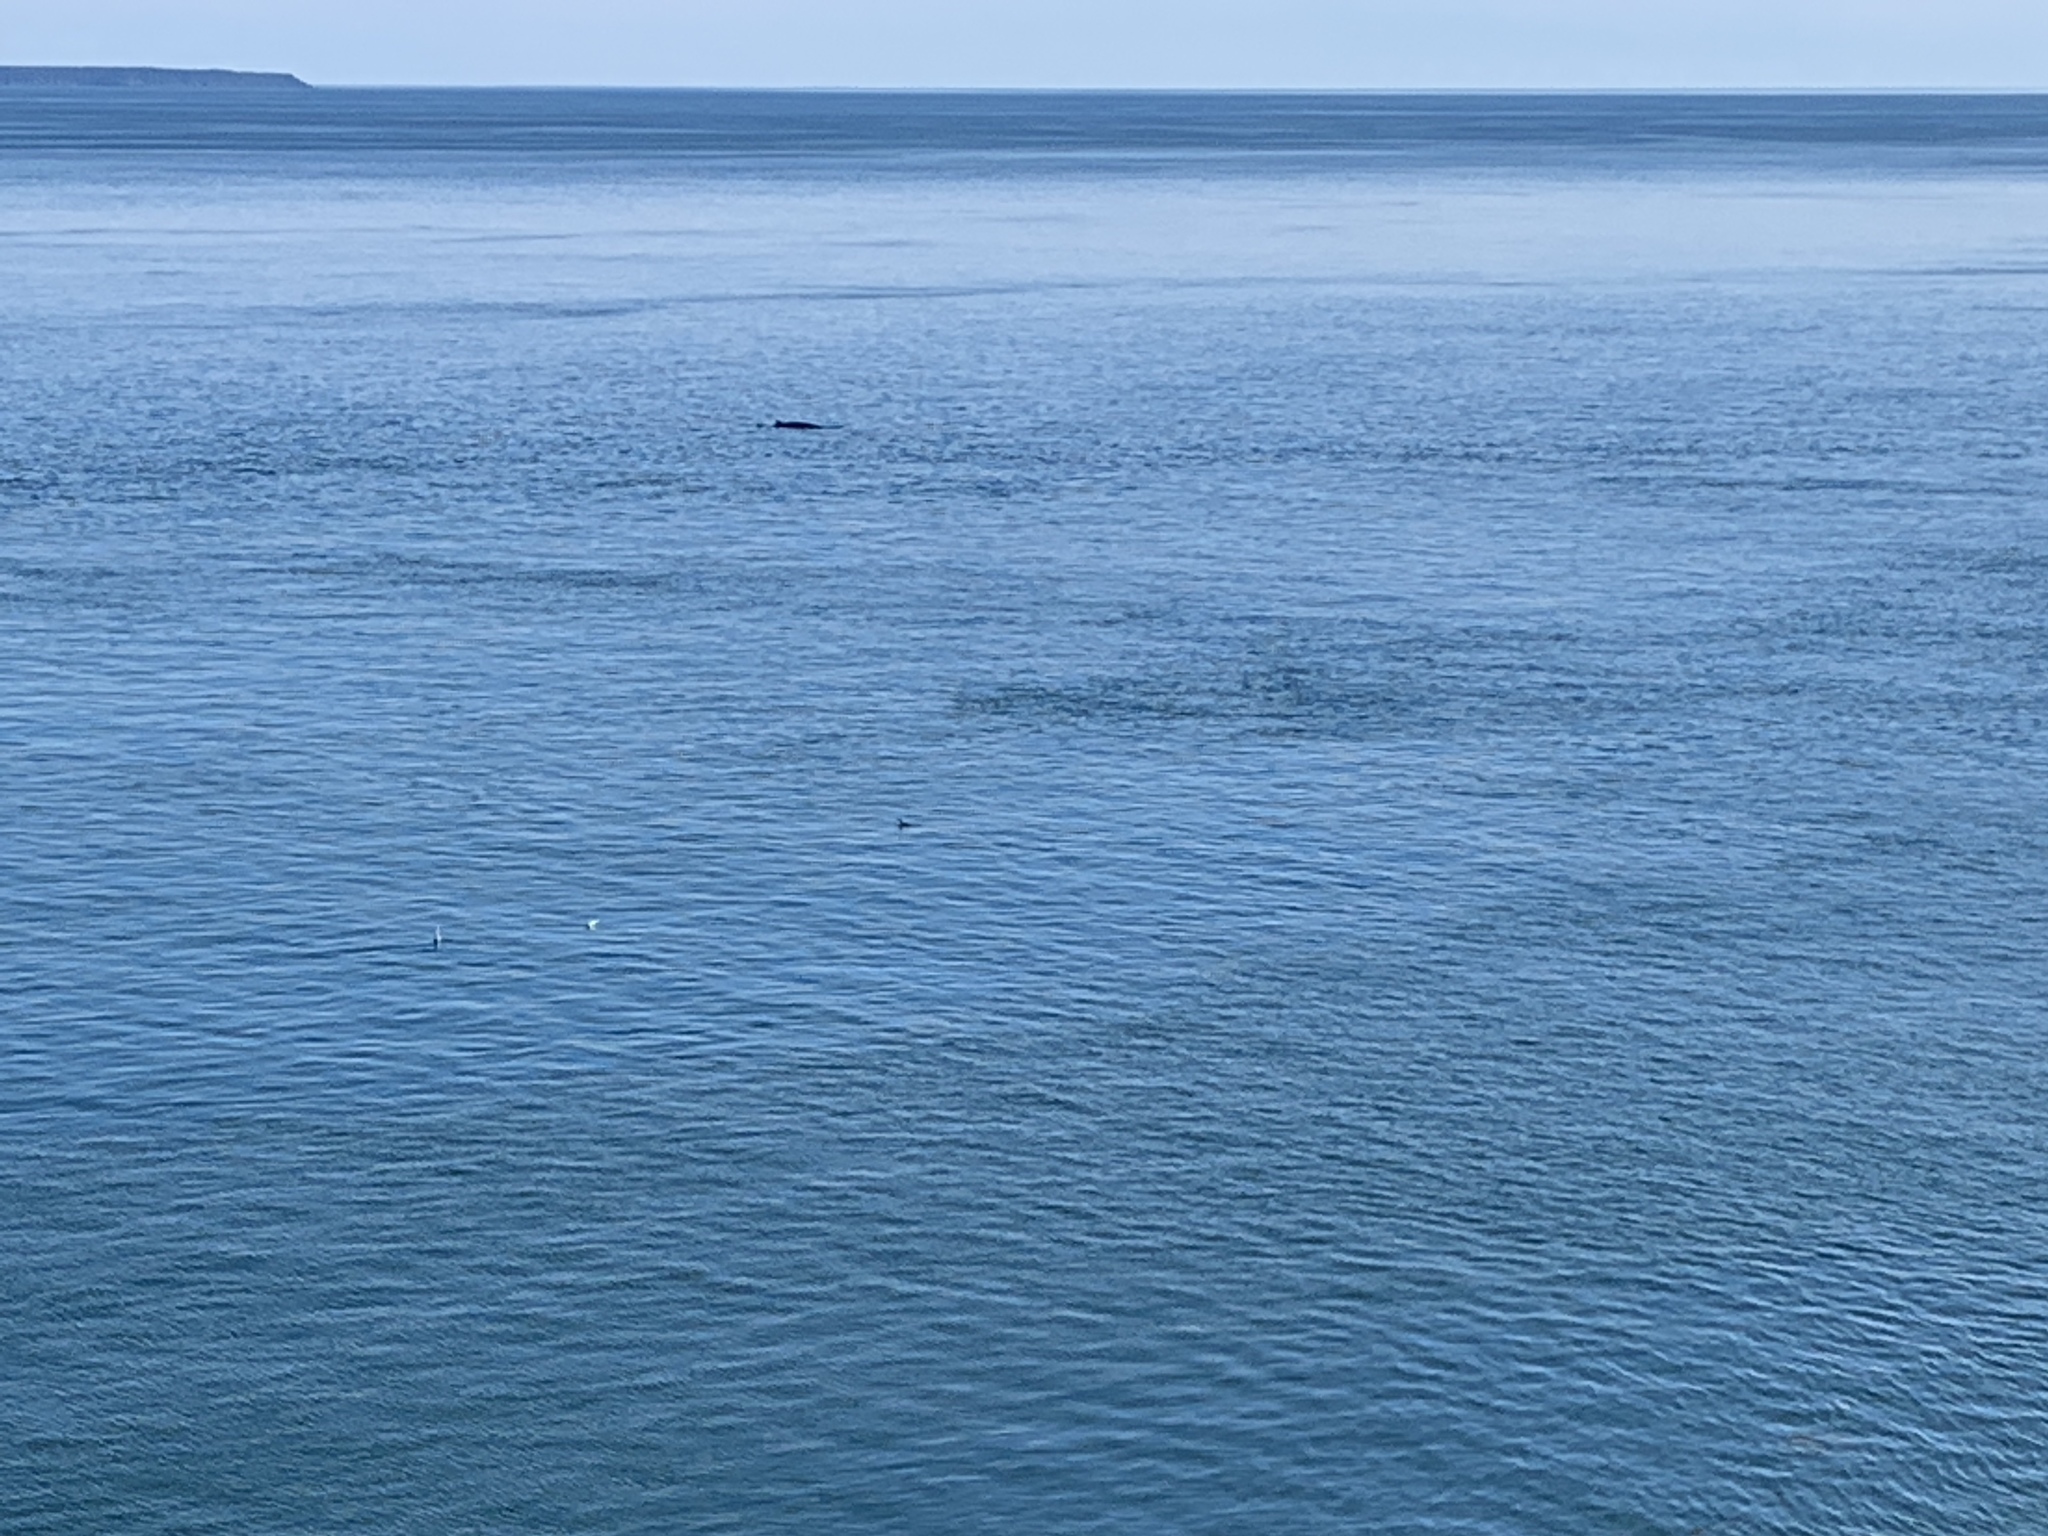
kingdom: Animalia
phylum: Chordata
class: Mammalia
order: Cetacea
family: Balaenopteridae
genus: Balaenoptera
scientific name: Balaenoptera acutorostrata
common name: Common minke whale
